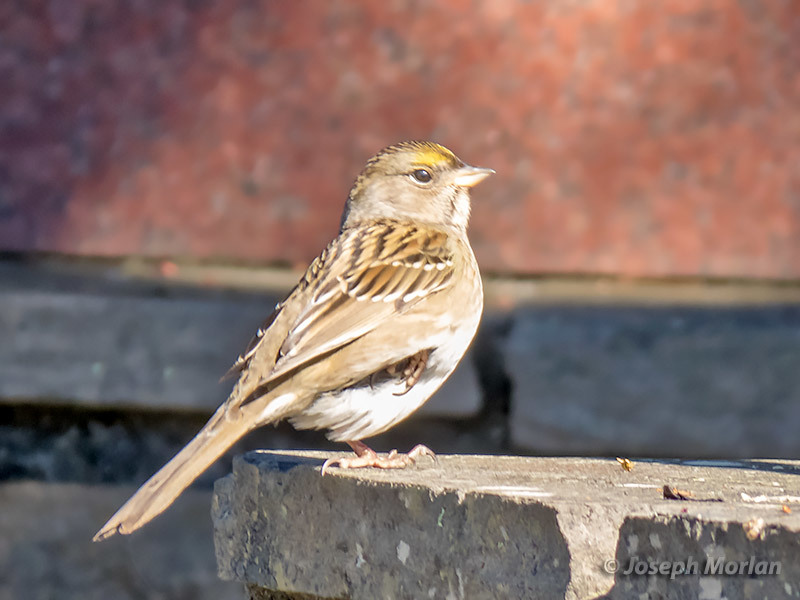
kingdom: Animalia
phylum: Chordata
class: Aves
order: Passeriformes
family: Passerellidae
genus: Zonotrichia
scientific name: Zonotrichia atricapilla
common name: Golden-crowned sparrow
